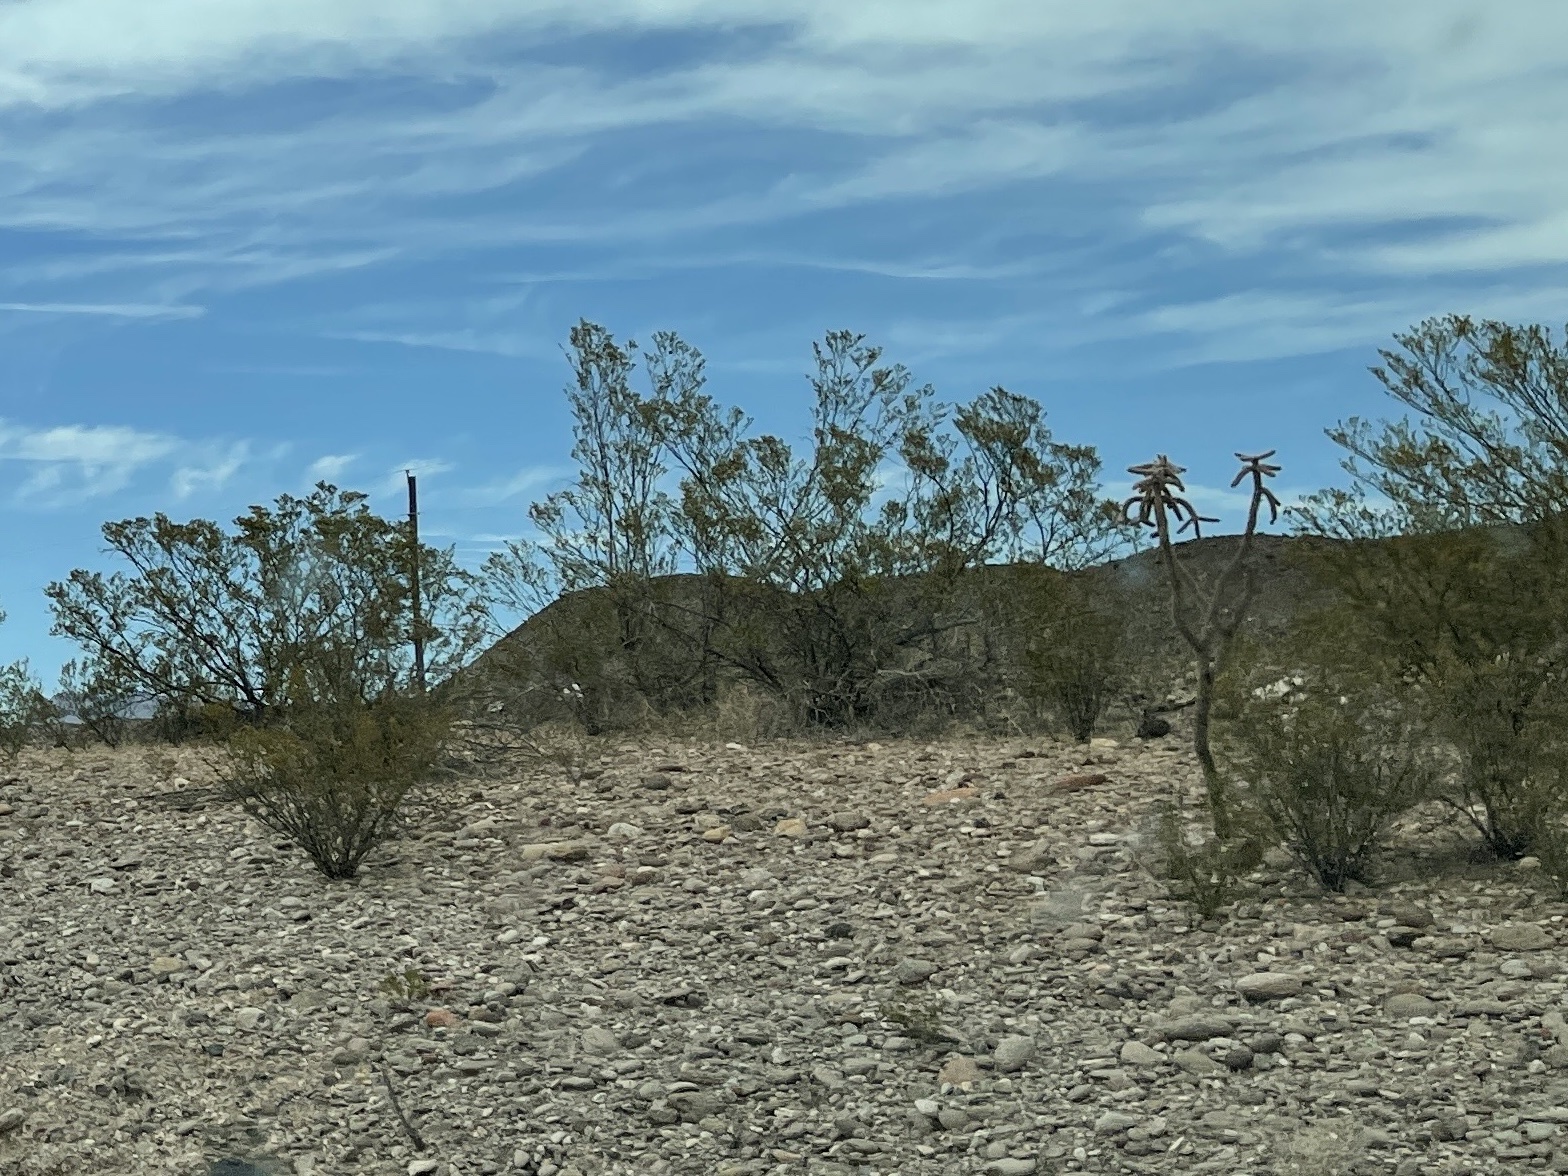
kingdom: Plantae
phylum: Tracheophyta
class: Magnoliopsida
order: Zygophyllales
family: Zygophyllaceae
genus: Larrea
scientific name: Larrea tridentata
